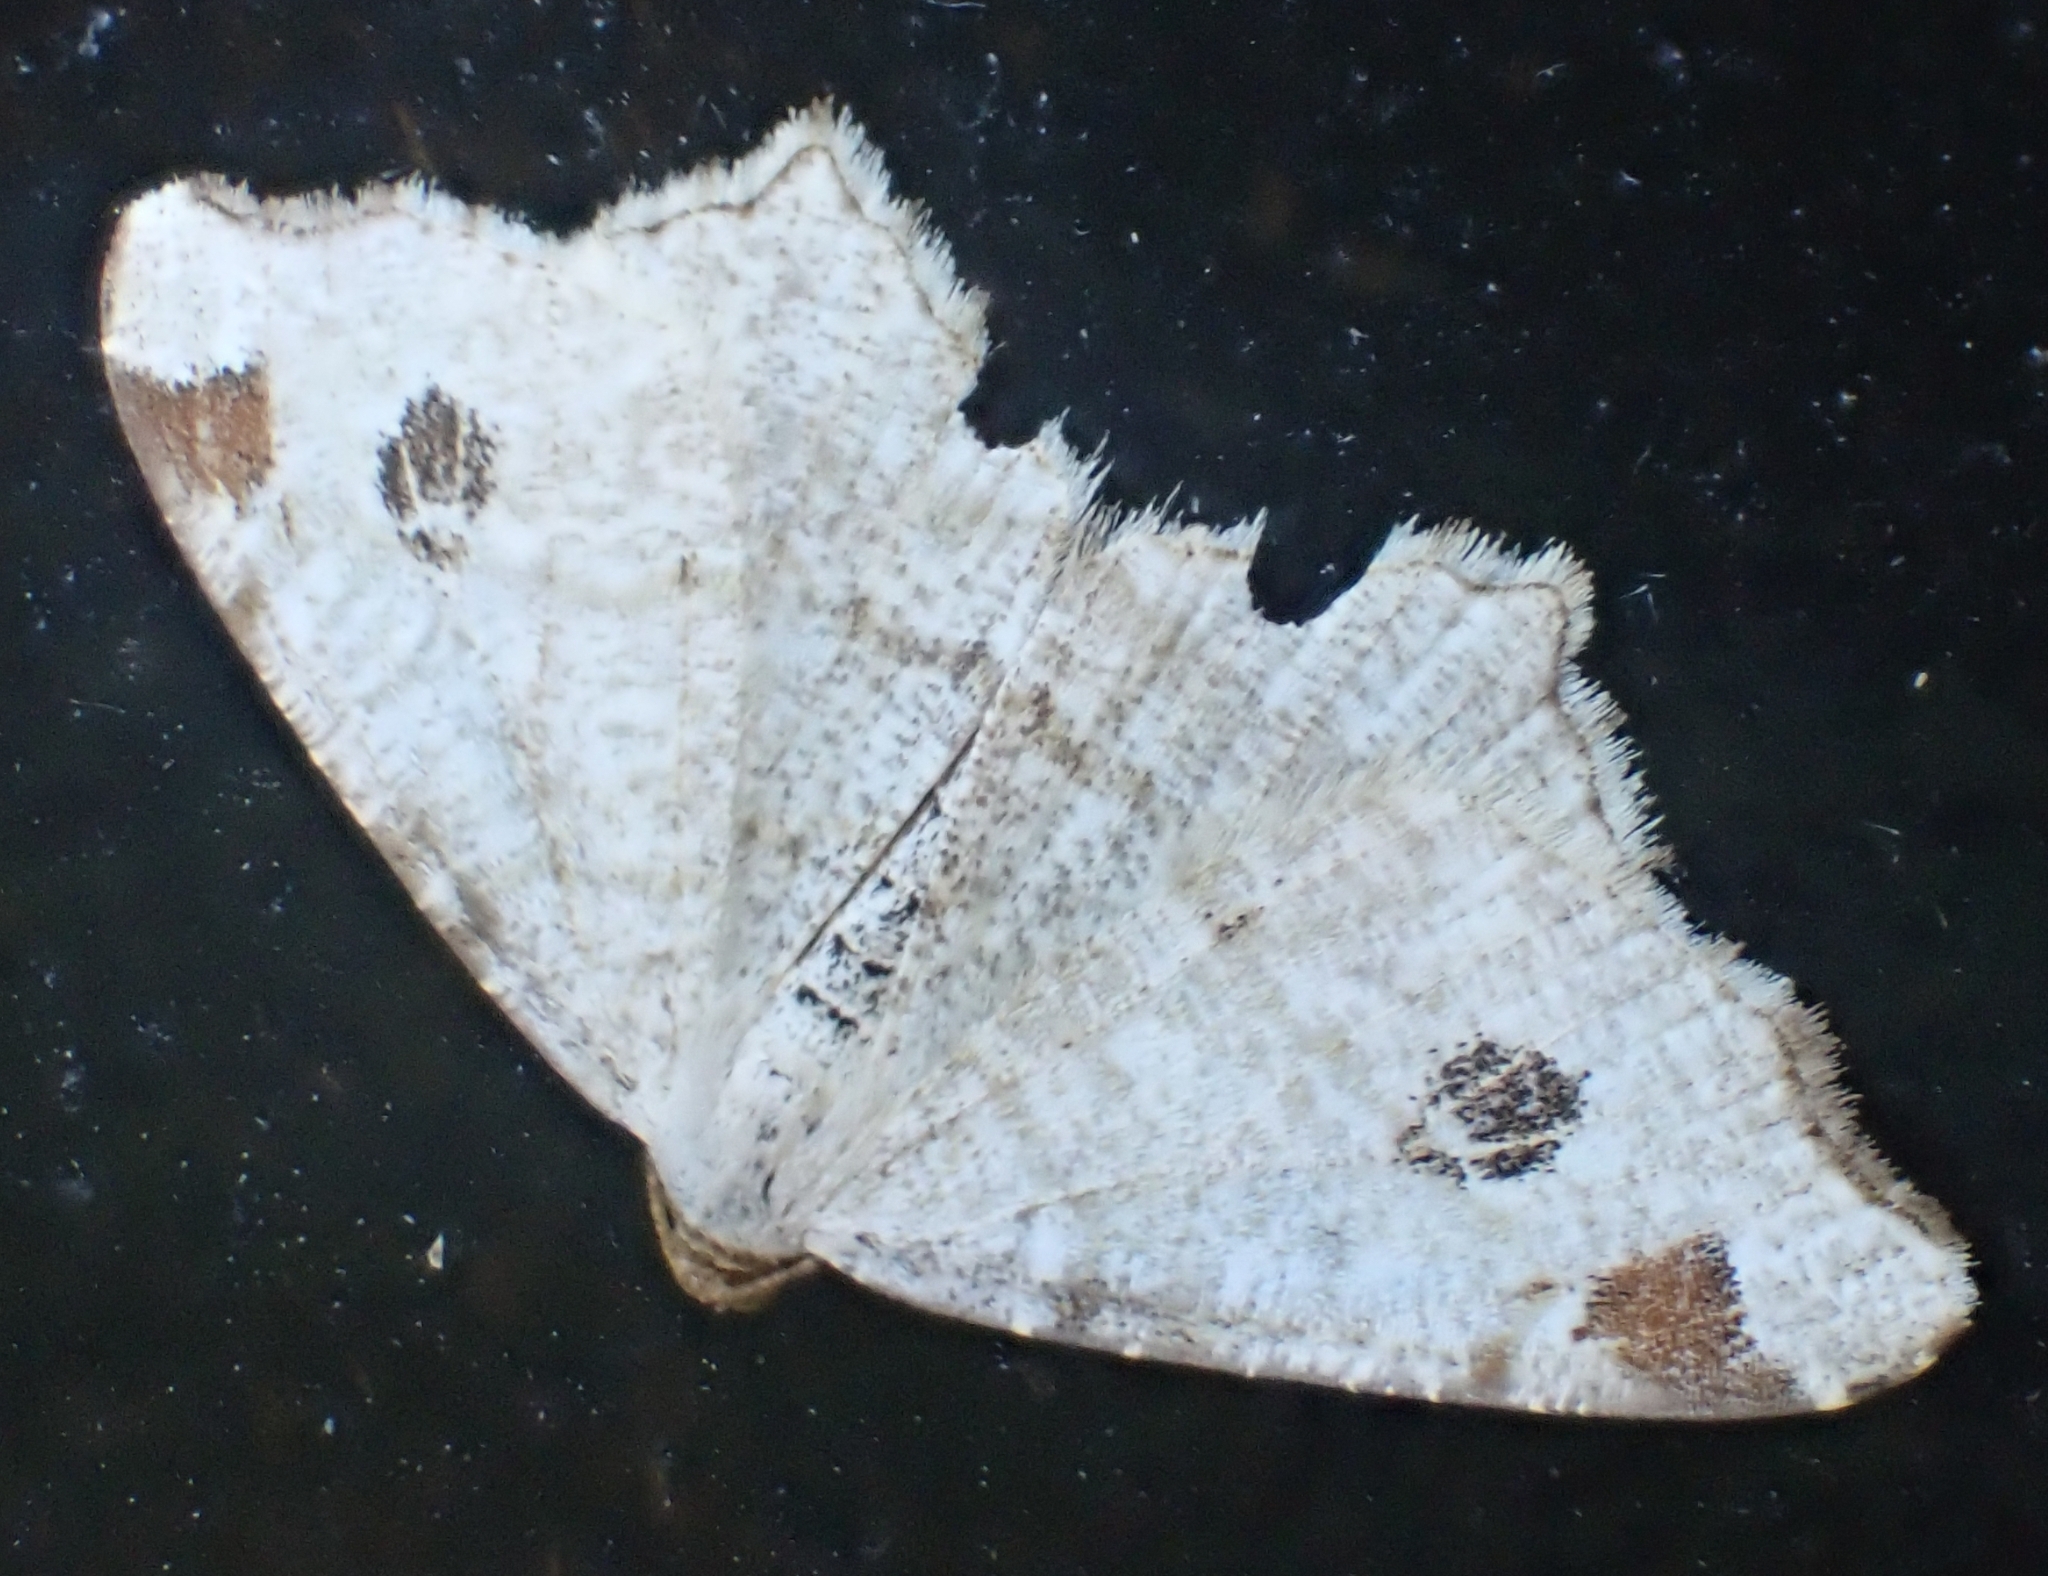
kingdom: Animalia
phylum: Arthropoda
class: Insecta
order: Lepidoptera
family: Geometridae
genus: Macaria
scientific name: Macaria notata
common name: Peacock moth
